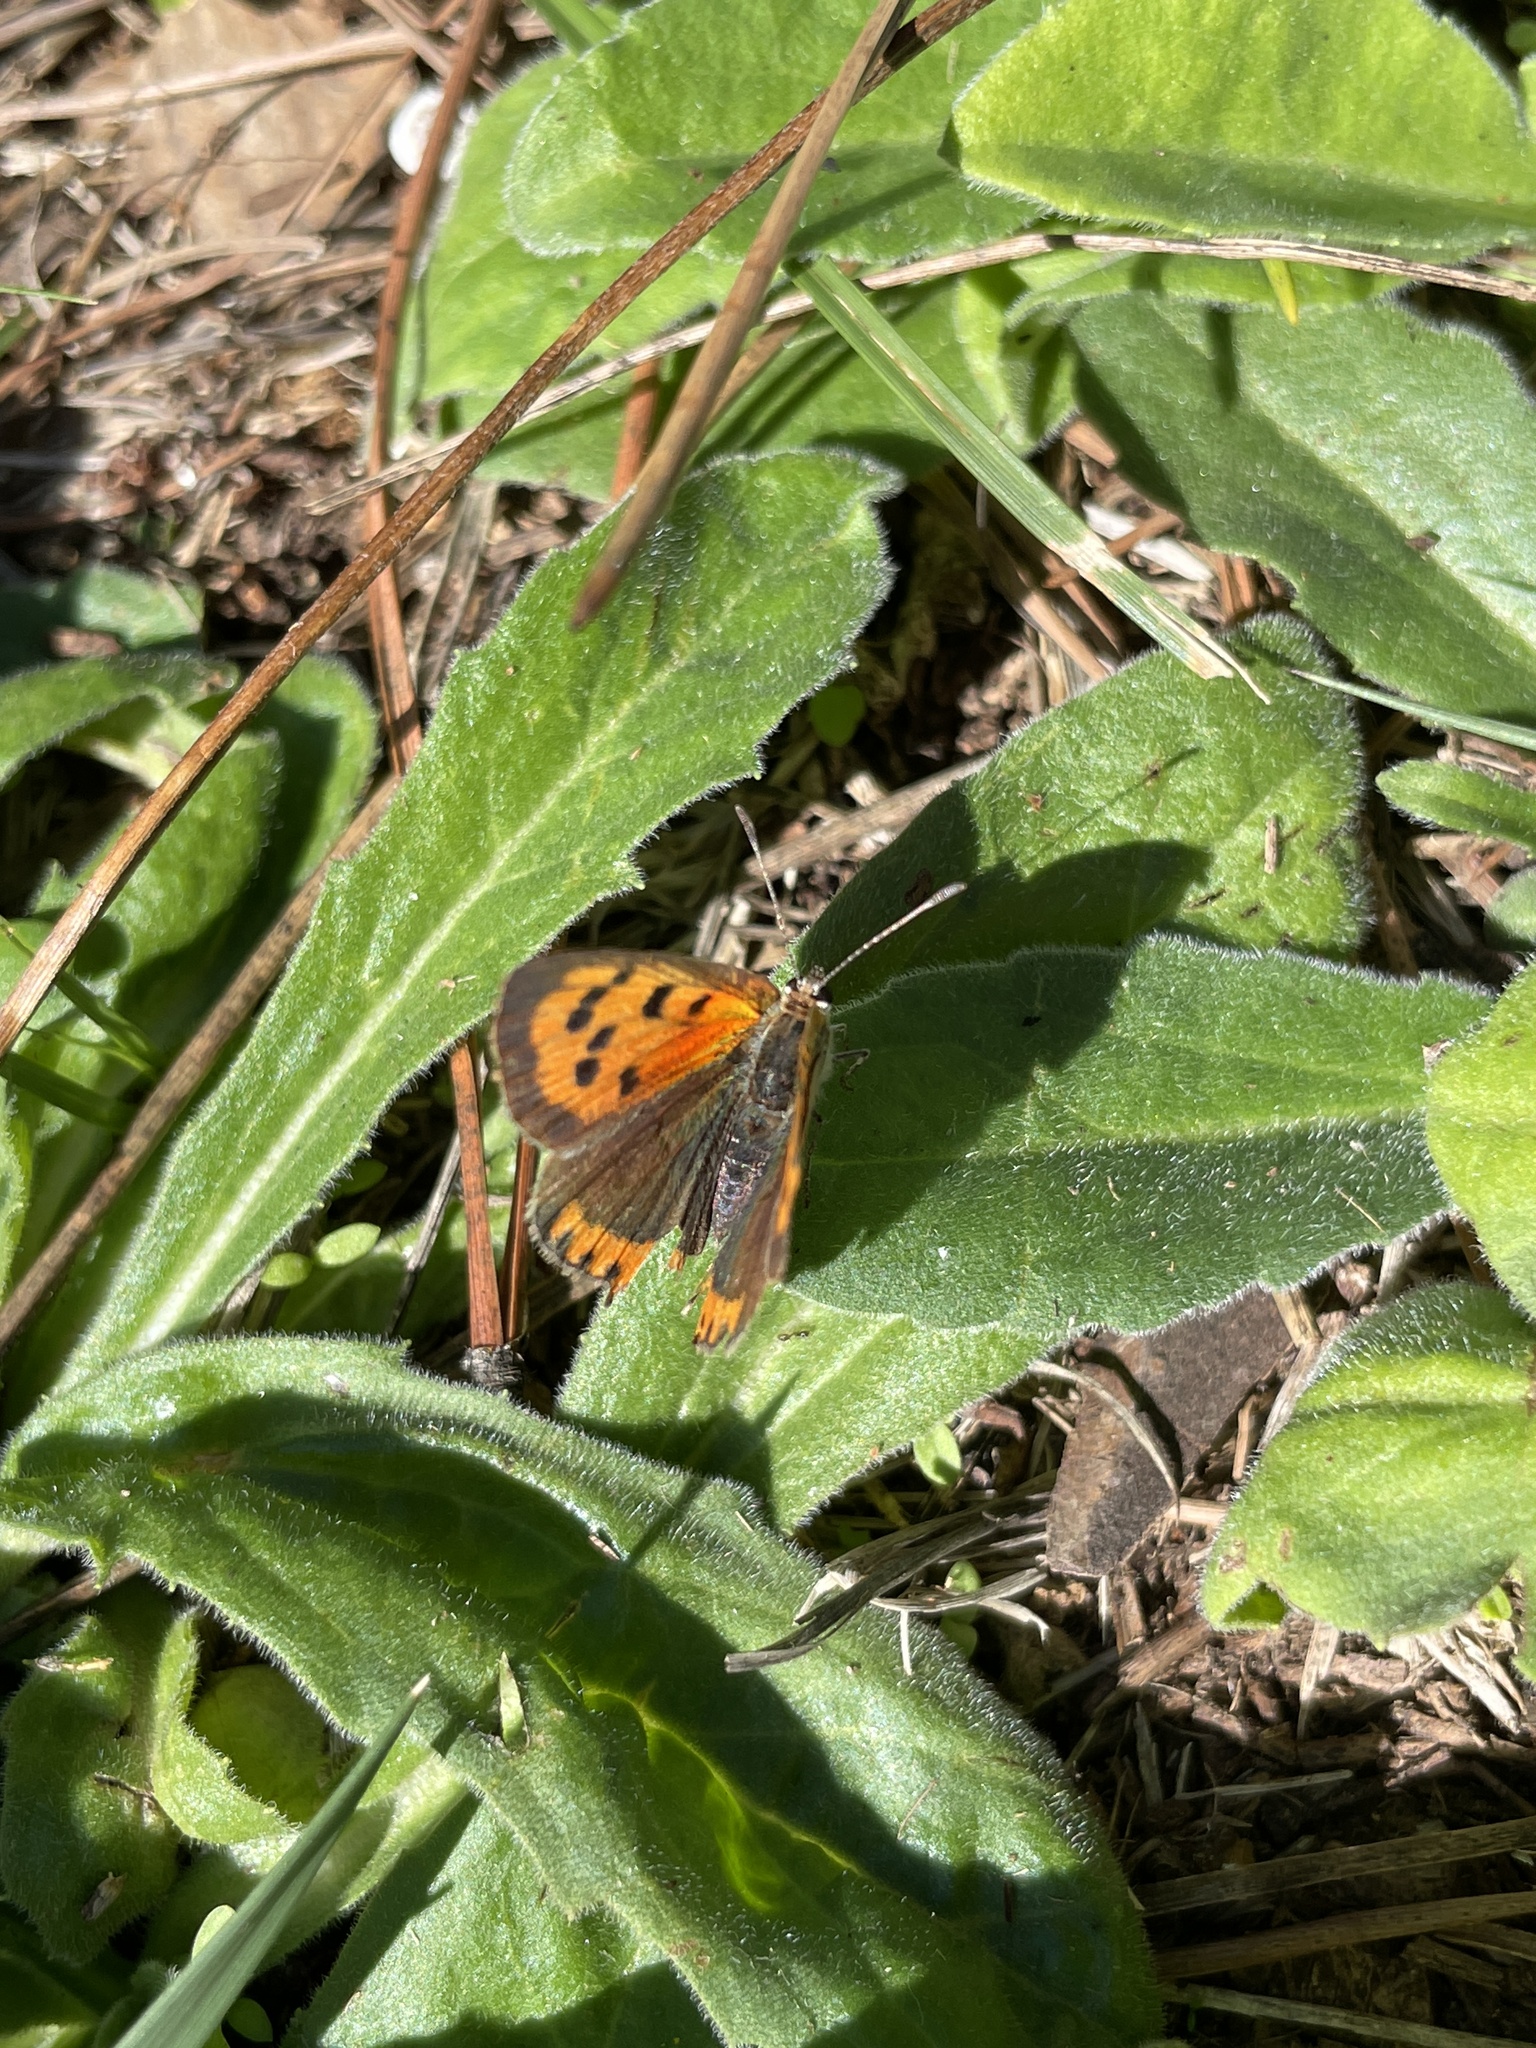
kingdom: Animalia
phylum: Arthropoda
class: Insecta
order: Lepidoptera
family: Lycaenidae
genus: Lycaena
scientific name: Lycaena phlaeas
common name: Small copper
